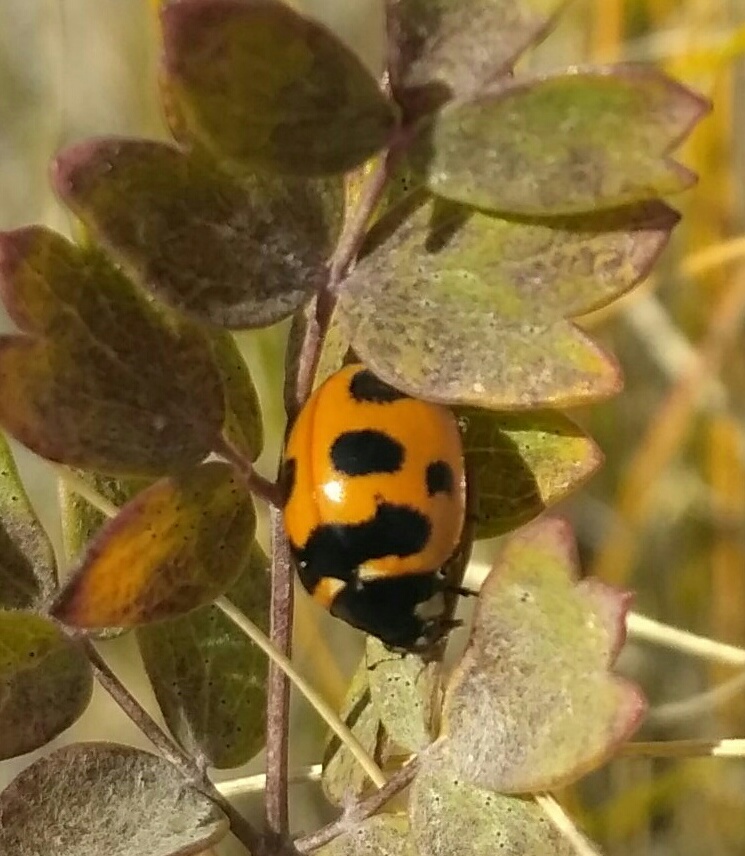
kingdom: Animalia
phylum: Arthropoda
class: Insecta
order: Coleoptera
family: Coccinellidae
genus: Coccinella
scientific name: Coccinella transversoguttata
